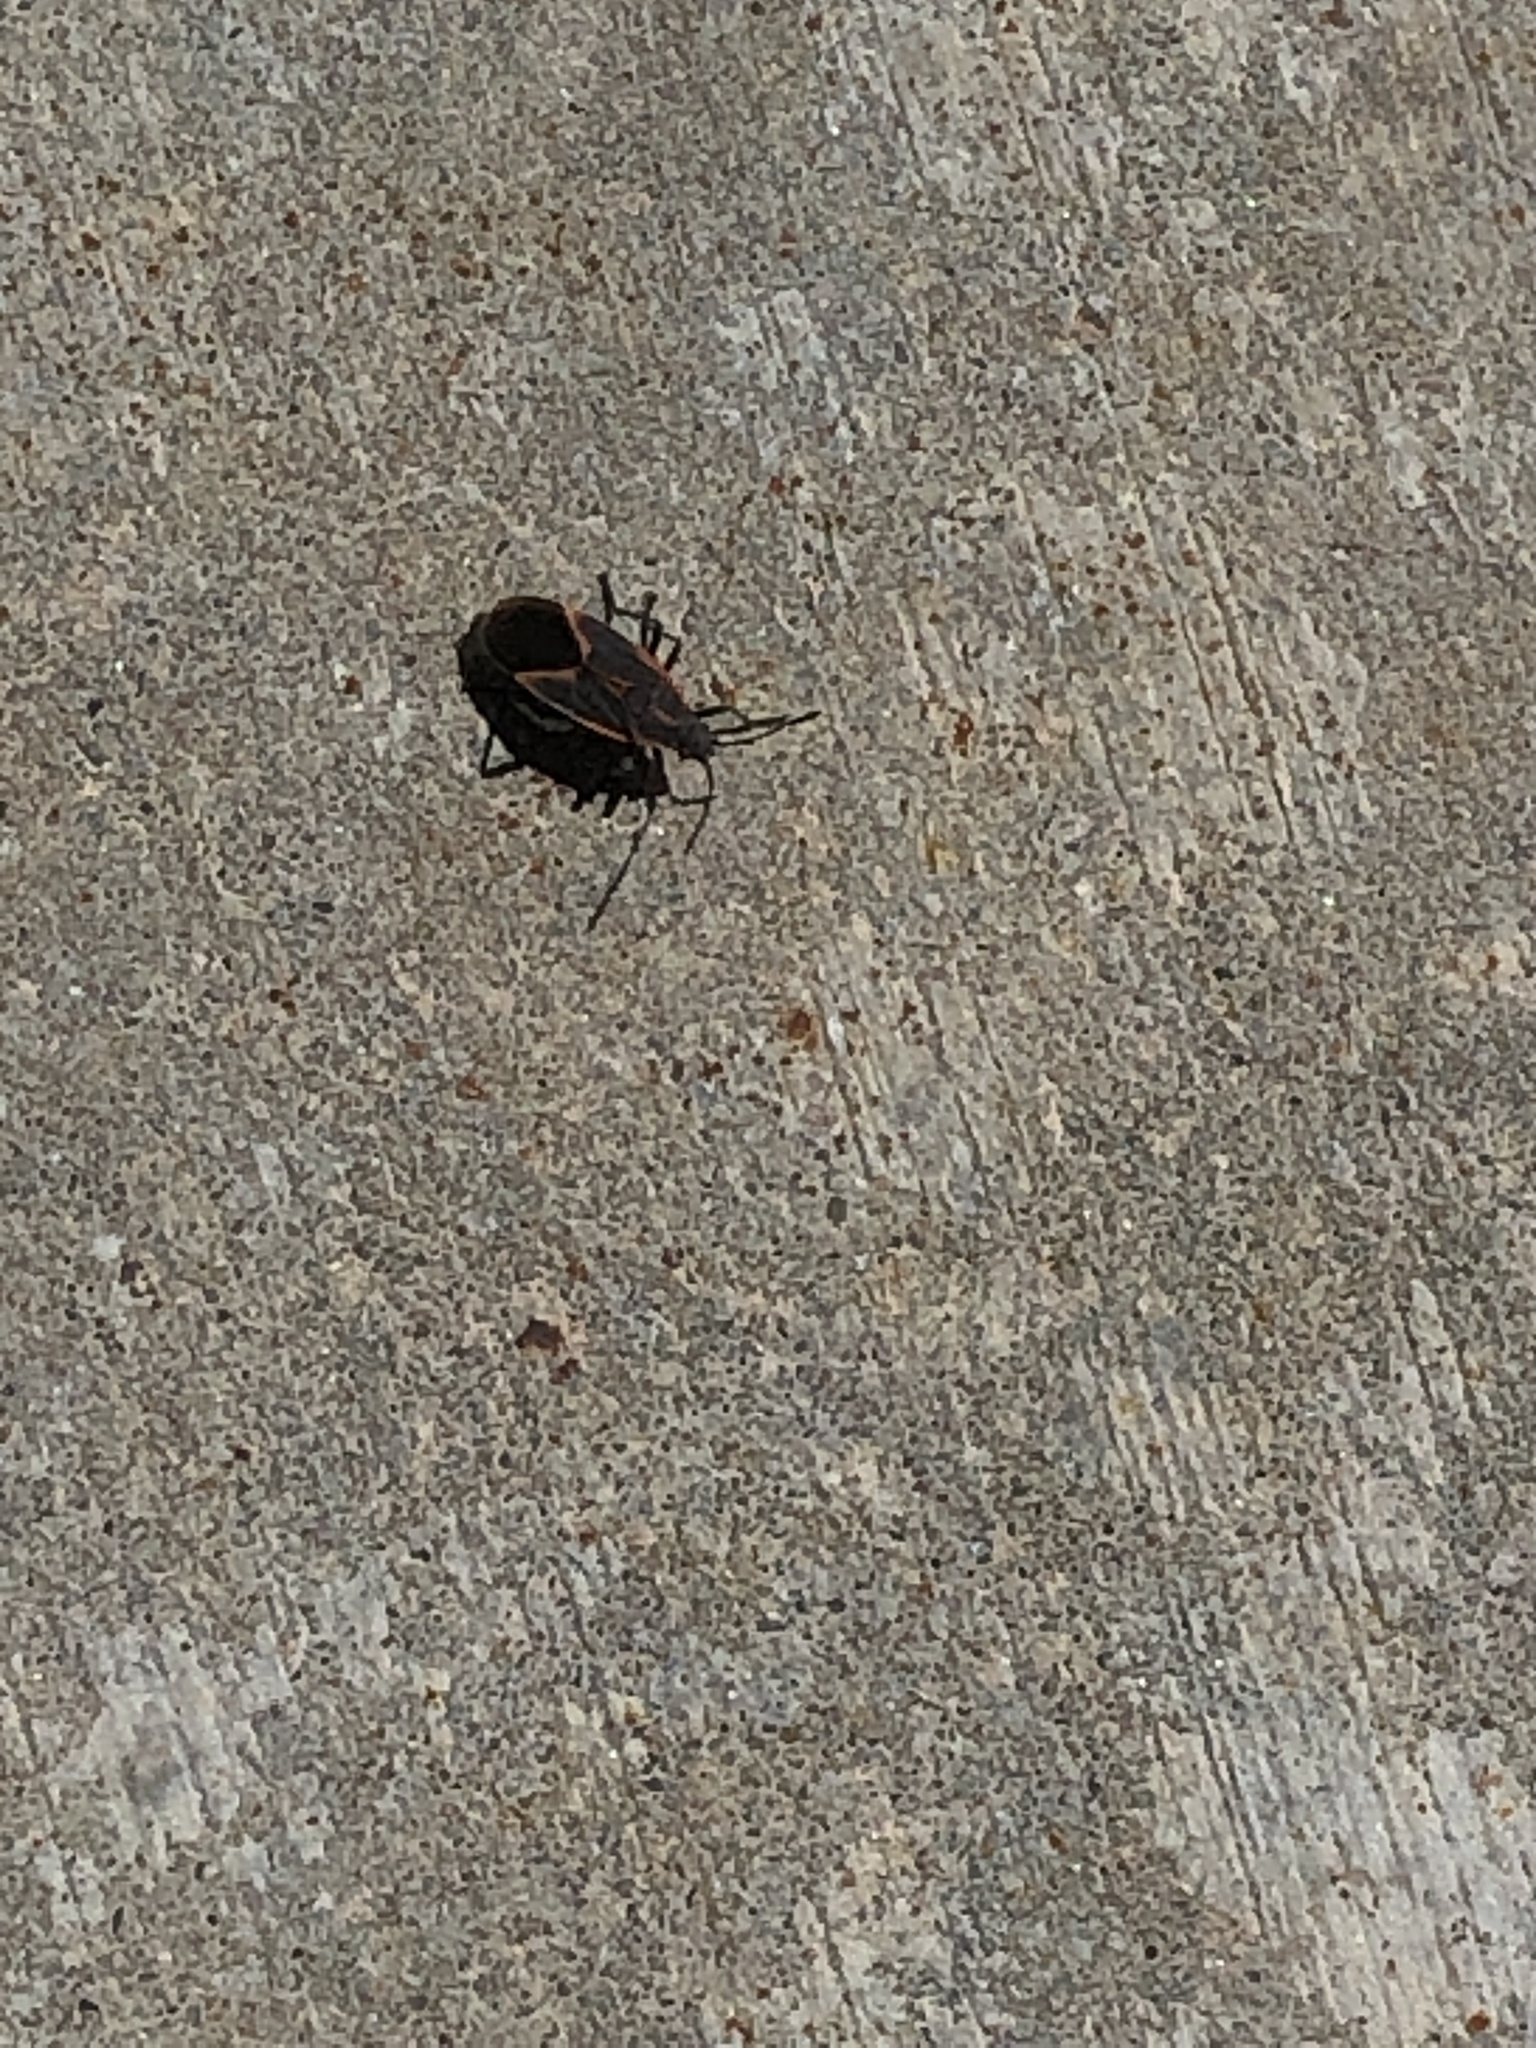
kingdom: Animalia
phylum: Arthropoda
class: Insecta
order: Hemiptera
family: Rhopalidae
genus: Boisea
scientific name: Boisea trivittata
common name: Boxelder bug
